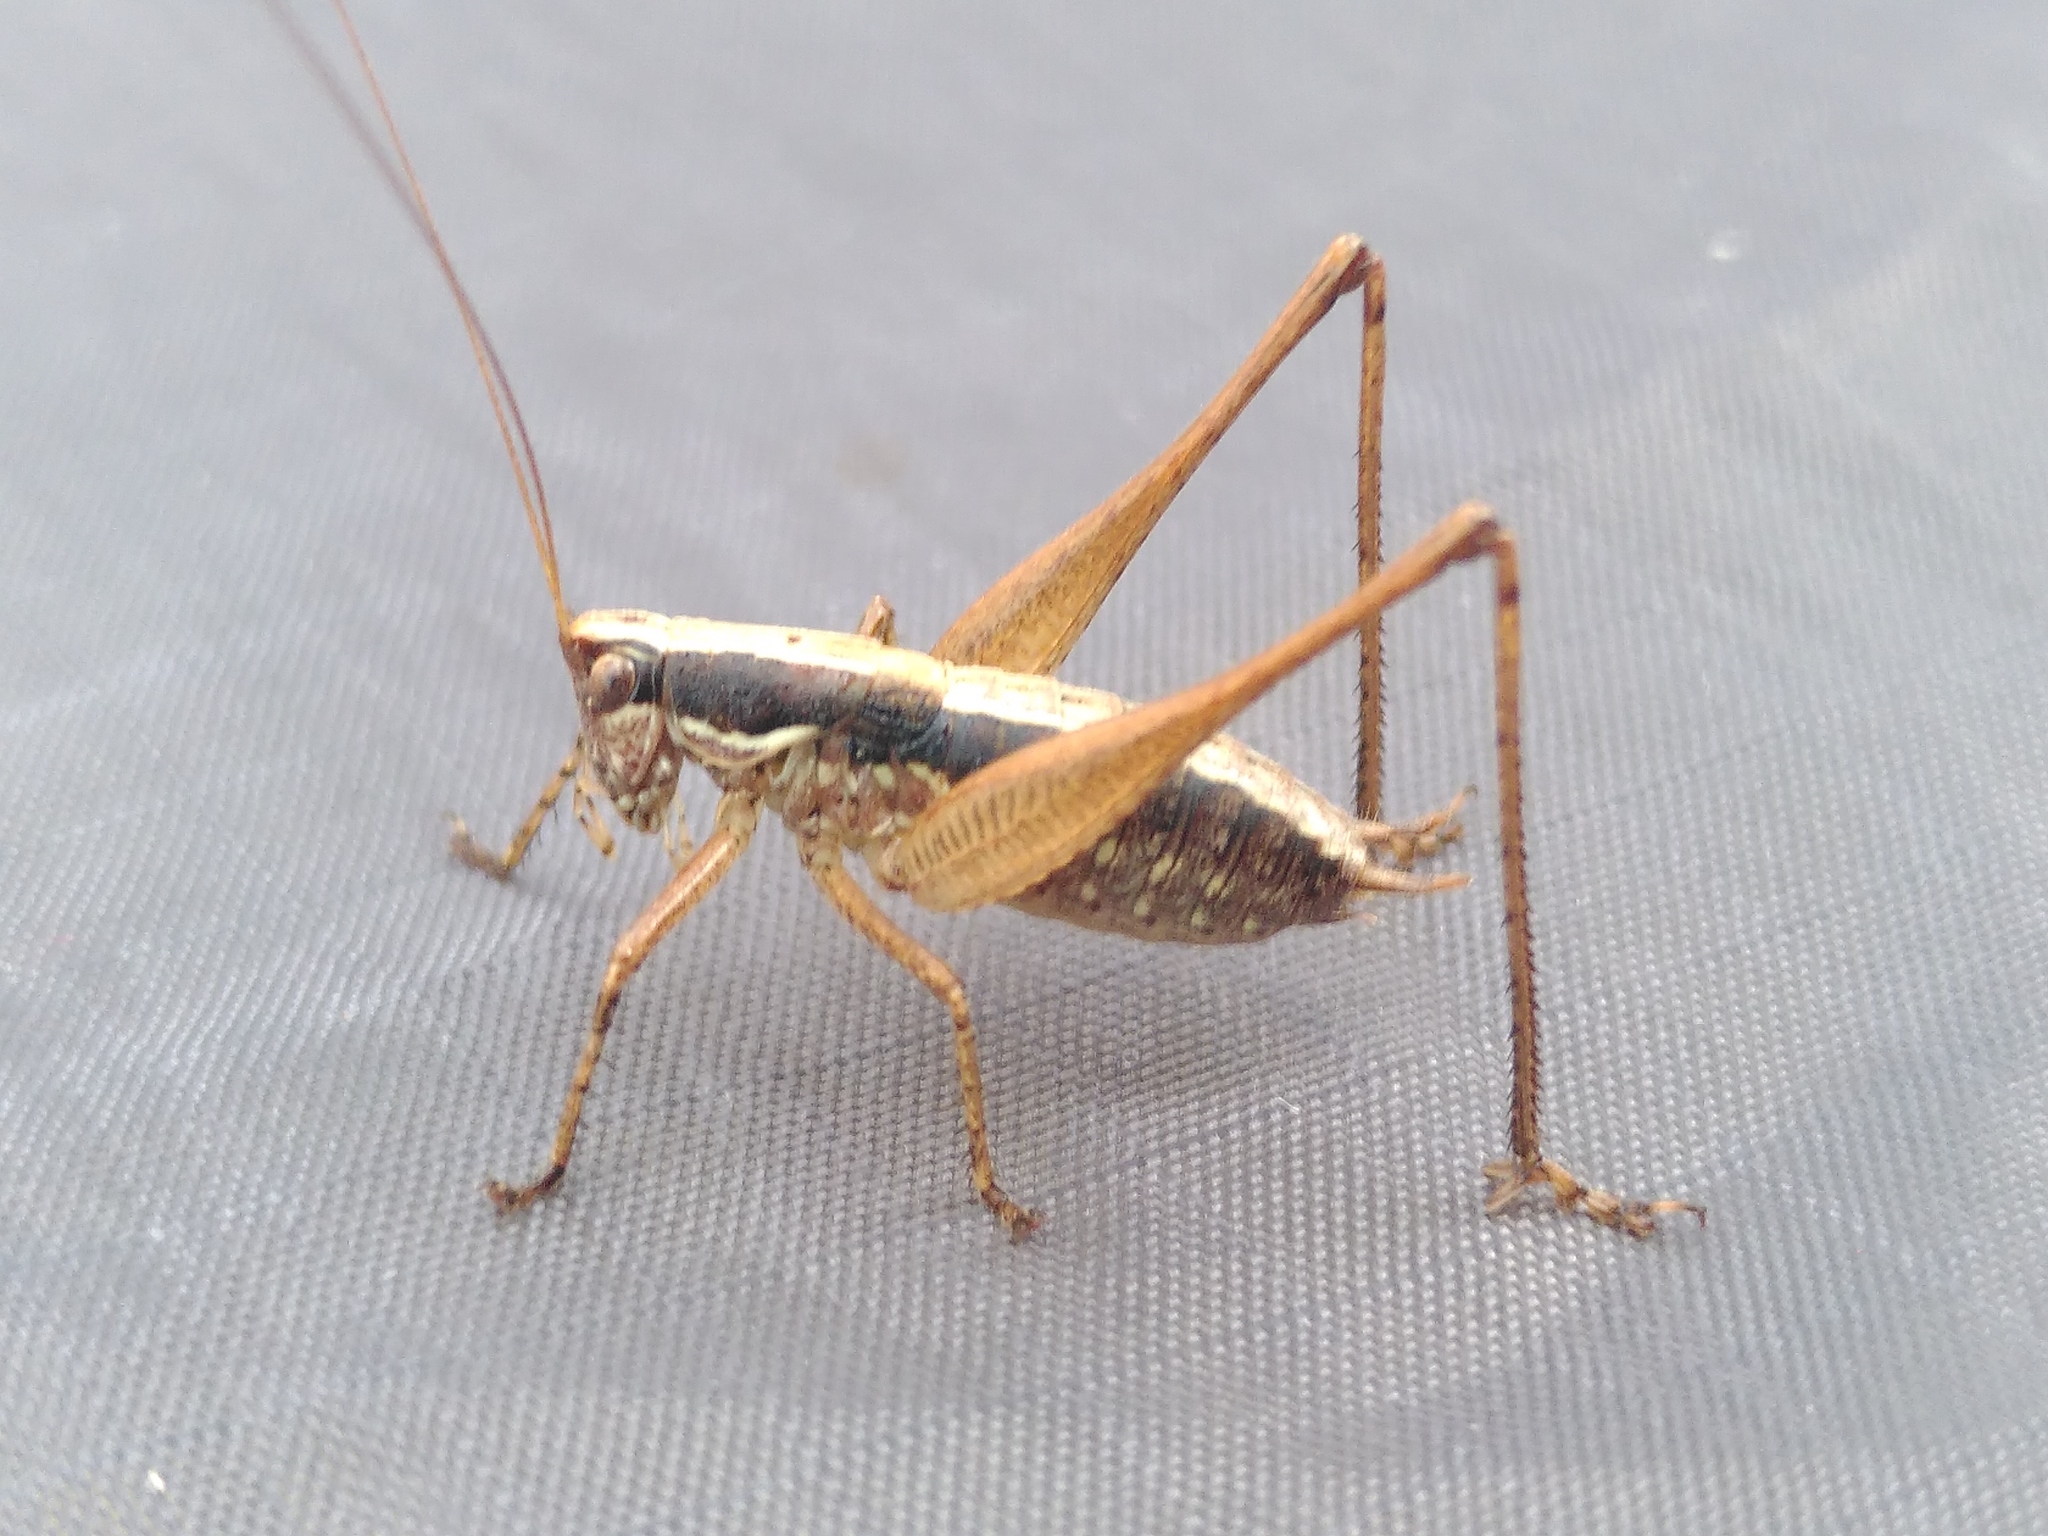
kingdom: Animalia
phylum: Arthropoda
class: Insecta
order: Orthoptera
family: Tettigoniidae
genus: Yersinella
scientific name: Yersinella raymondii
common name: Raymond's bush-cricket
